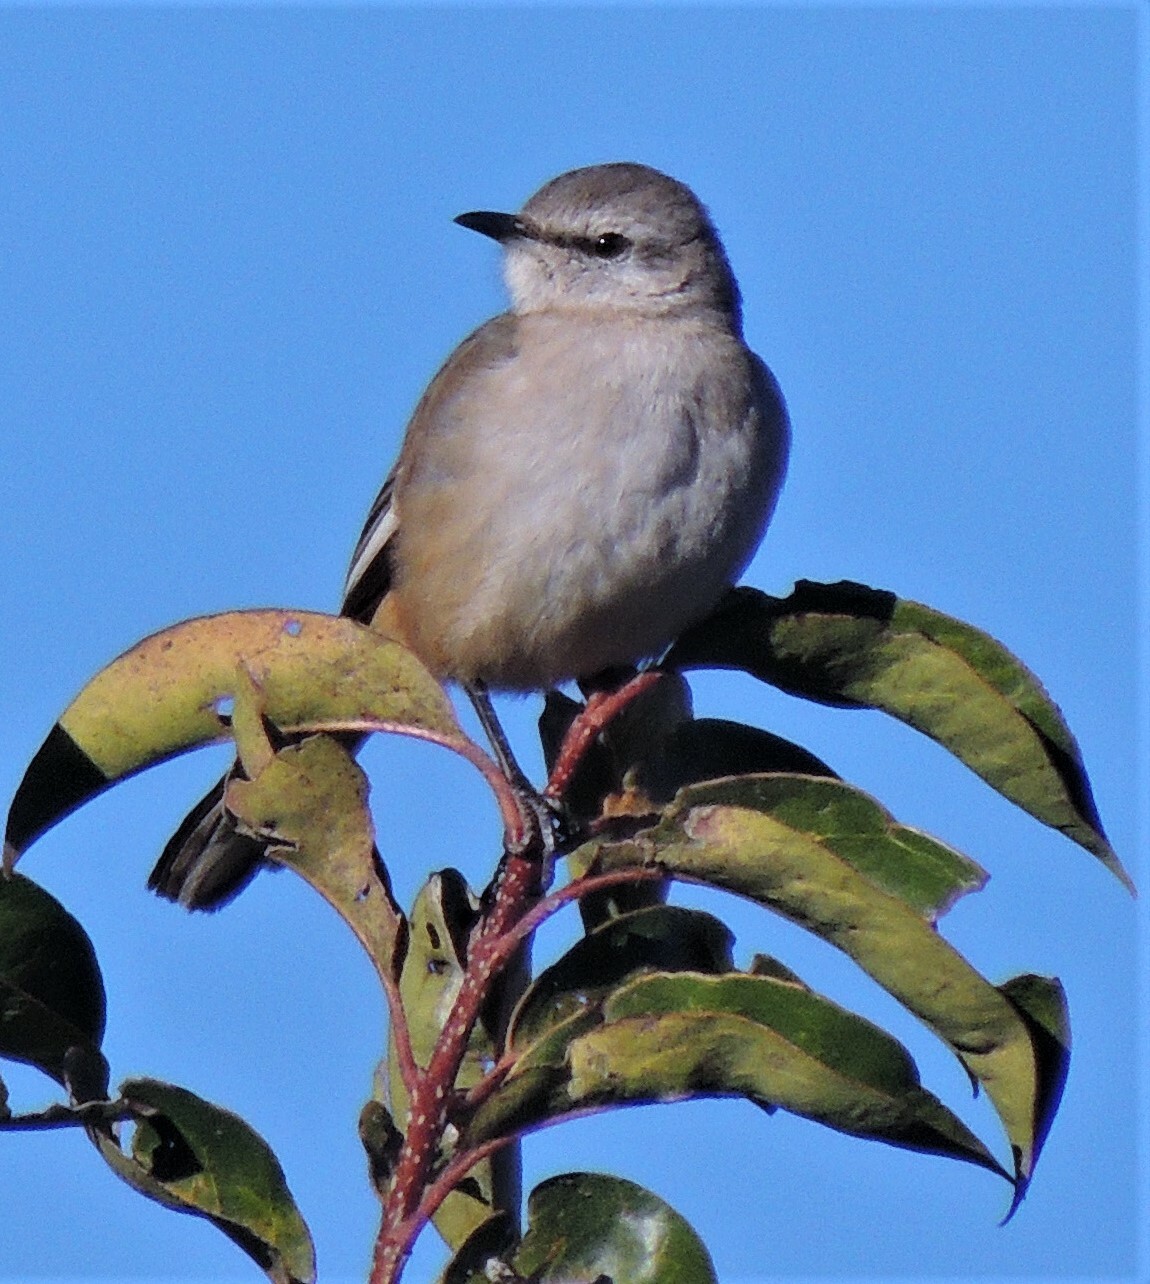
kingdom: Animalia
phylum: Chordata
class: Aves
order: Passeriformes
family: Mimidae
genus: Mimus
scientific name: Mimus triurus
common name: White-banded mockingbird
